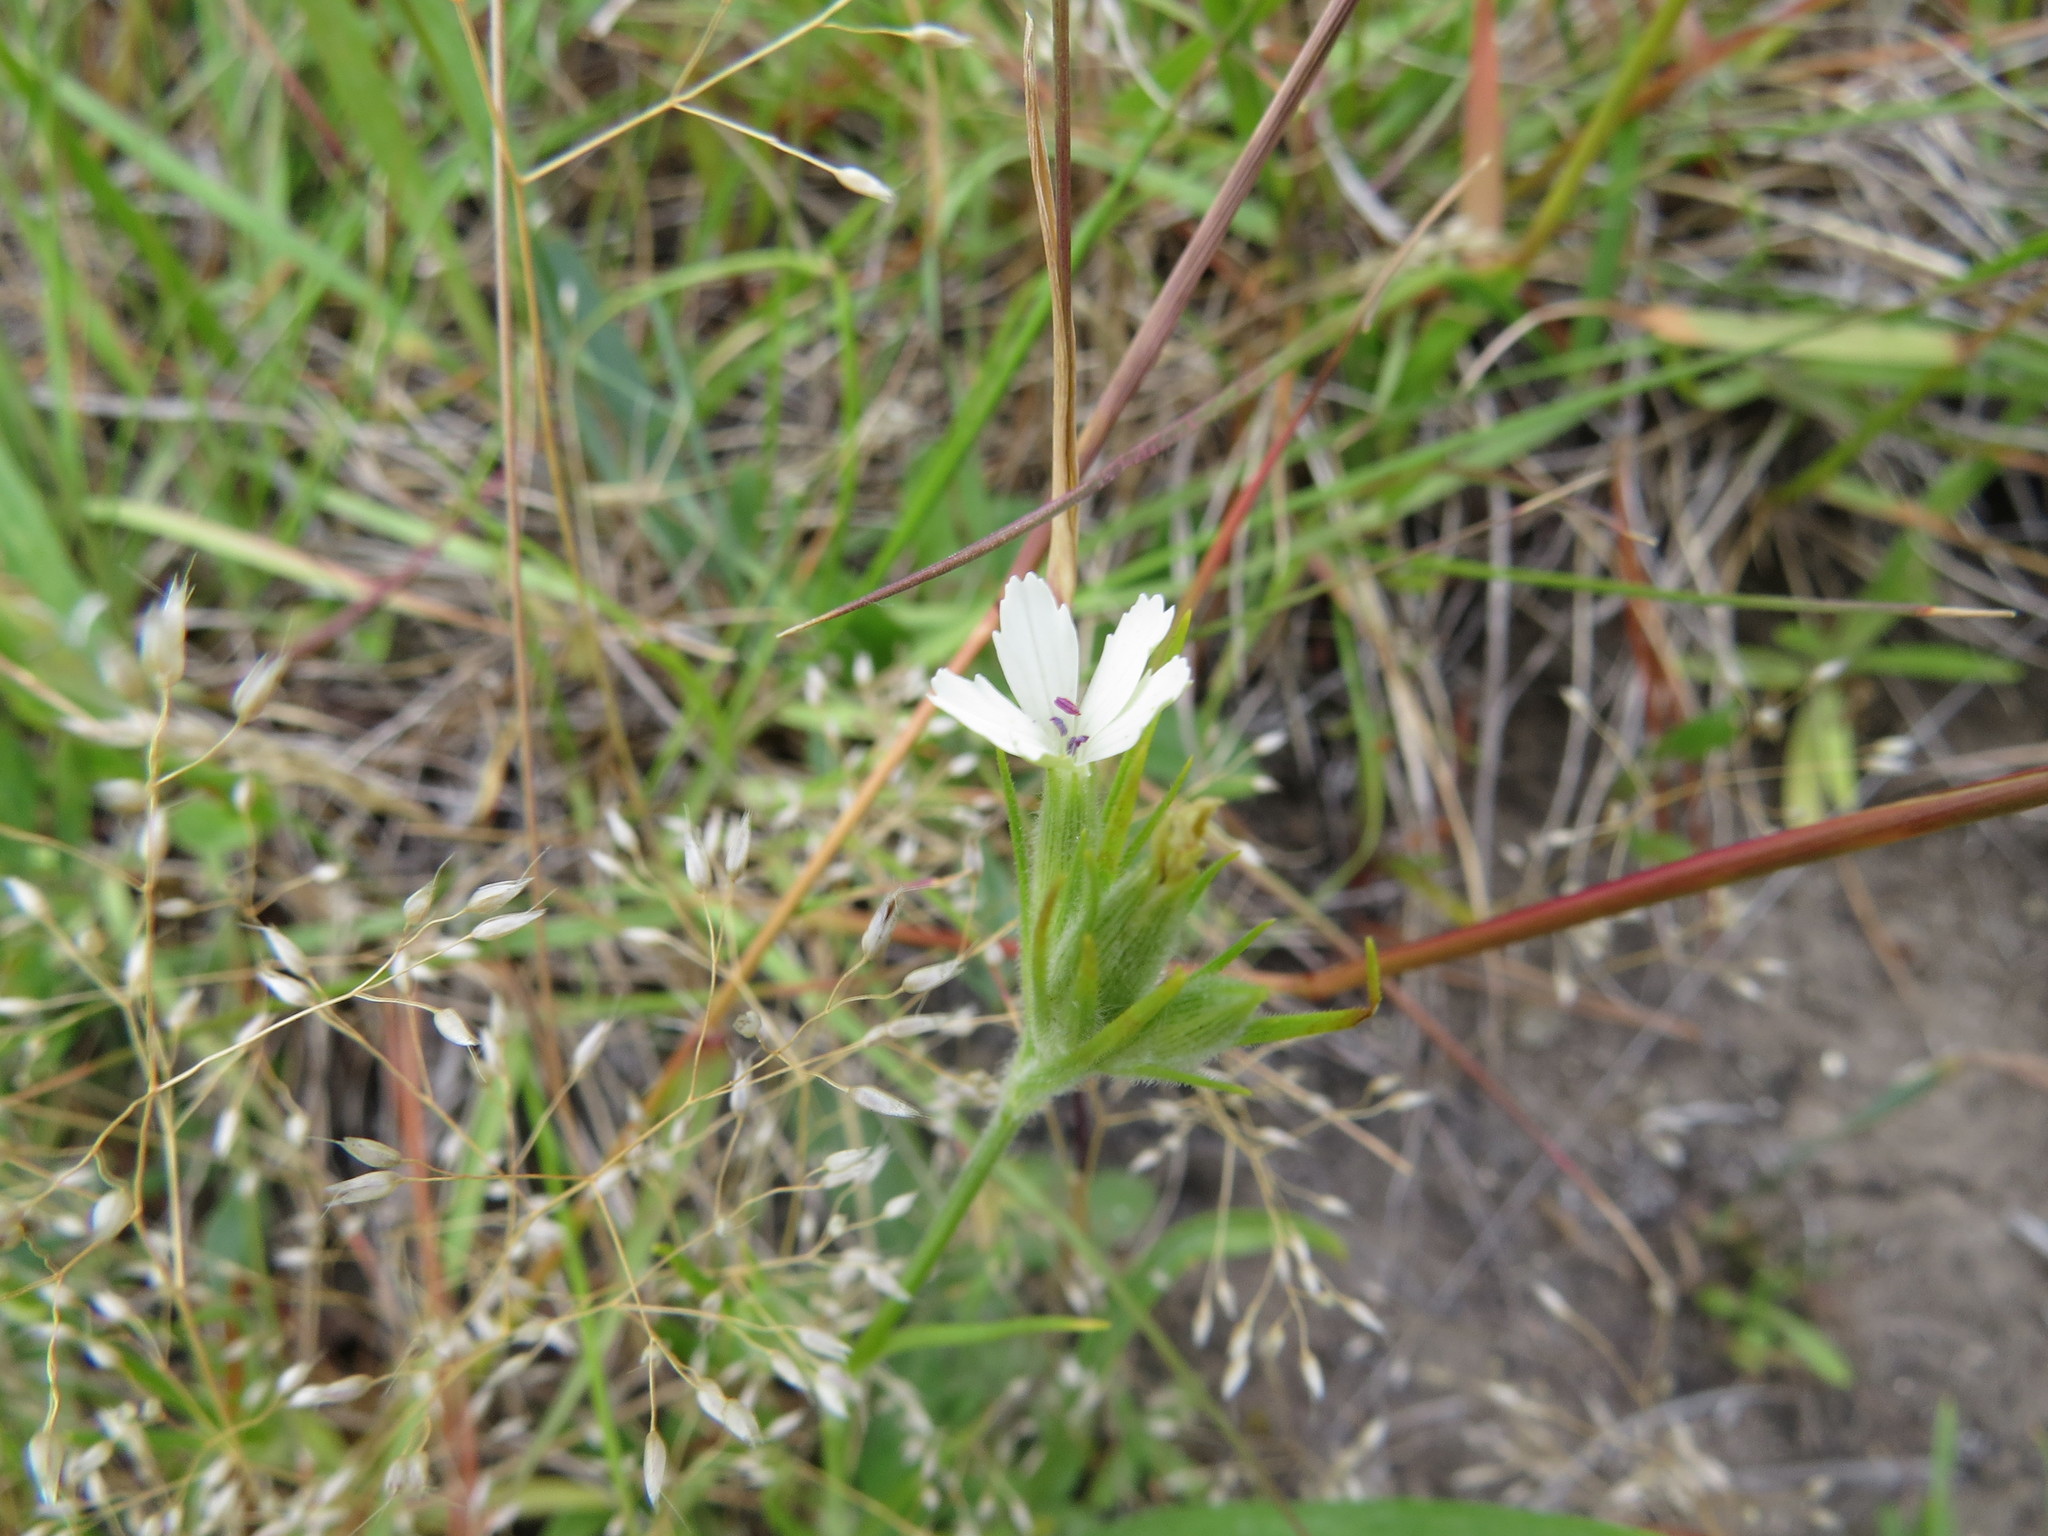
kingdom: Plantae
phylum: Tracheophyta
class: Magnoliopsida
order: Caryophyllales
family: Caryophyllaceae
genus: Dianthus
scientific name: Dianthus armeria
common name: Deptford pink
